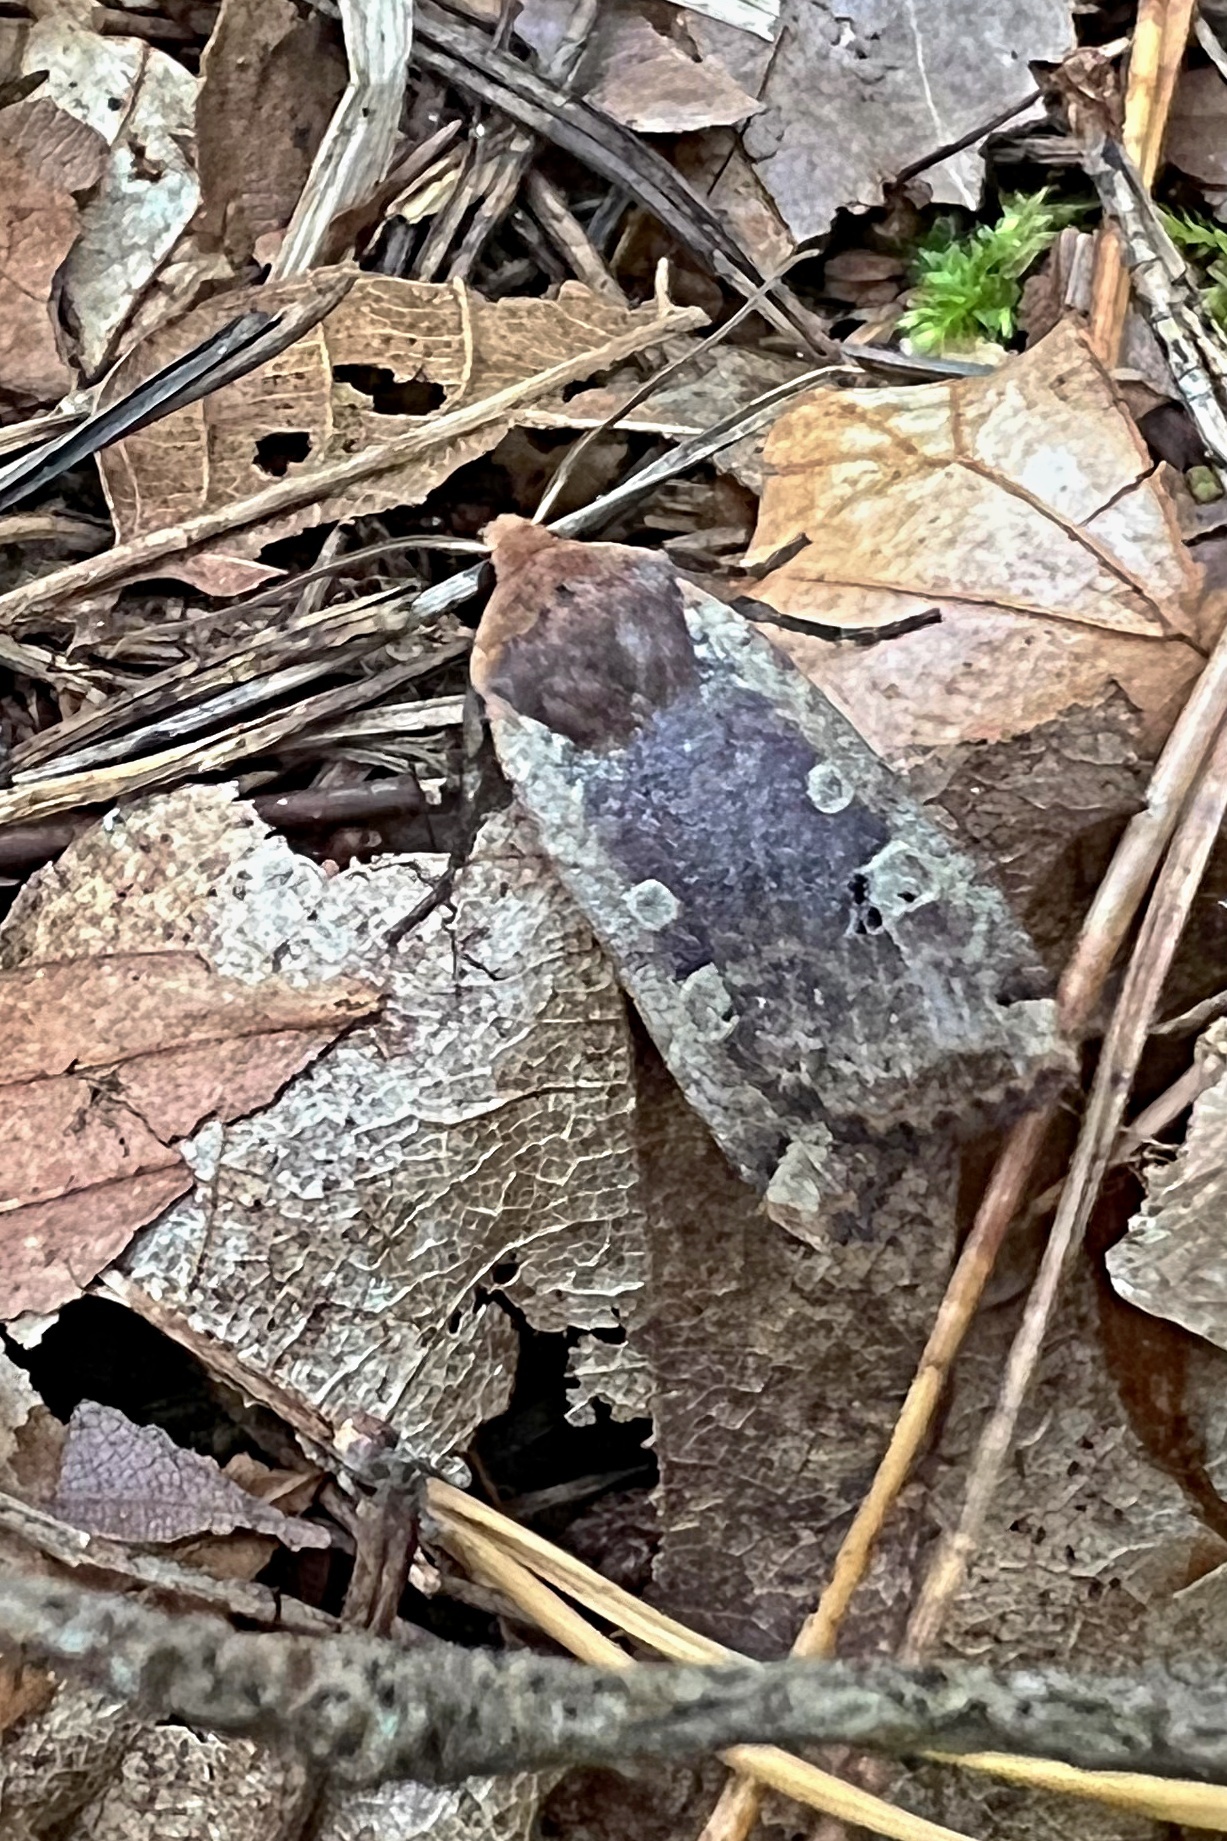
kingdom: Animalia
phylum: Arthropoda
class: Insecta
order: Lepidoptera
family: Noctuidae
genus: Conistra
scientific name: Conistra erythrocephala
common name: Red-headed chestnut
